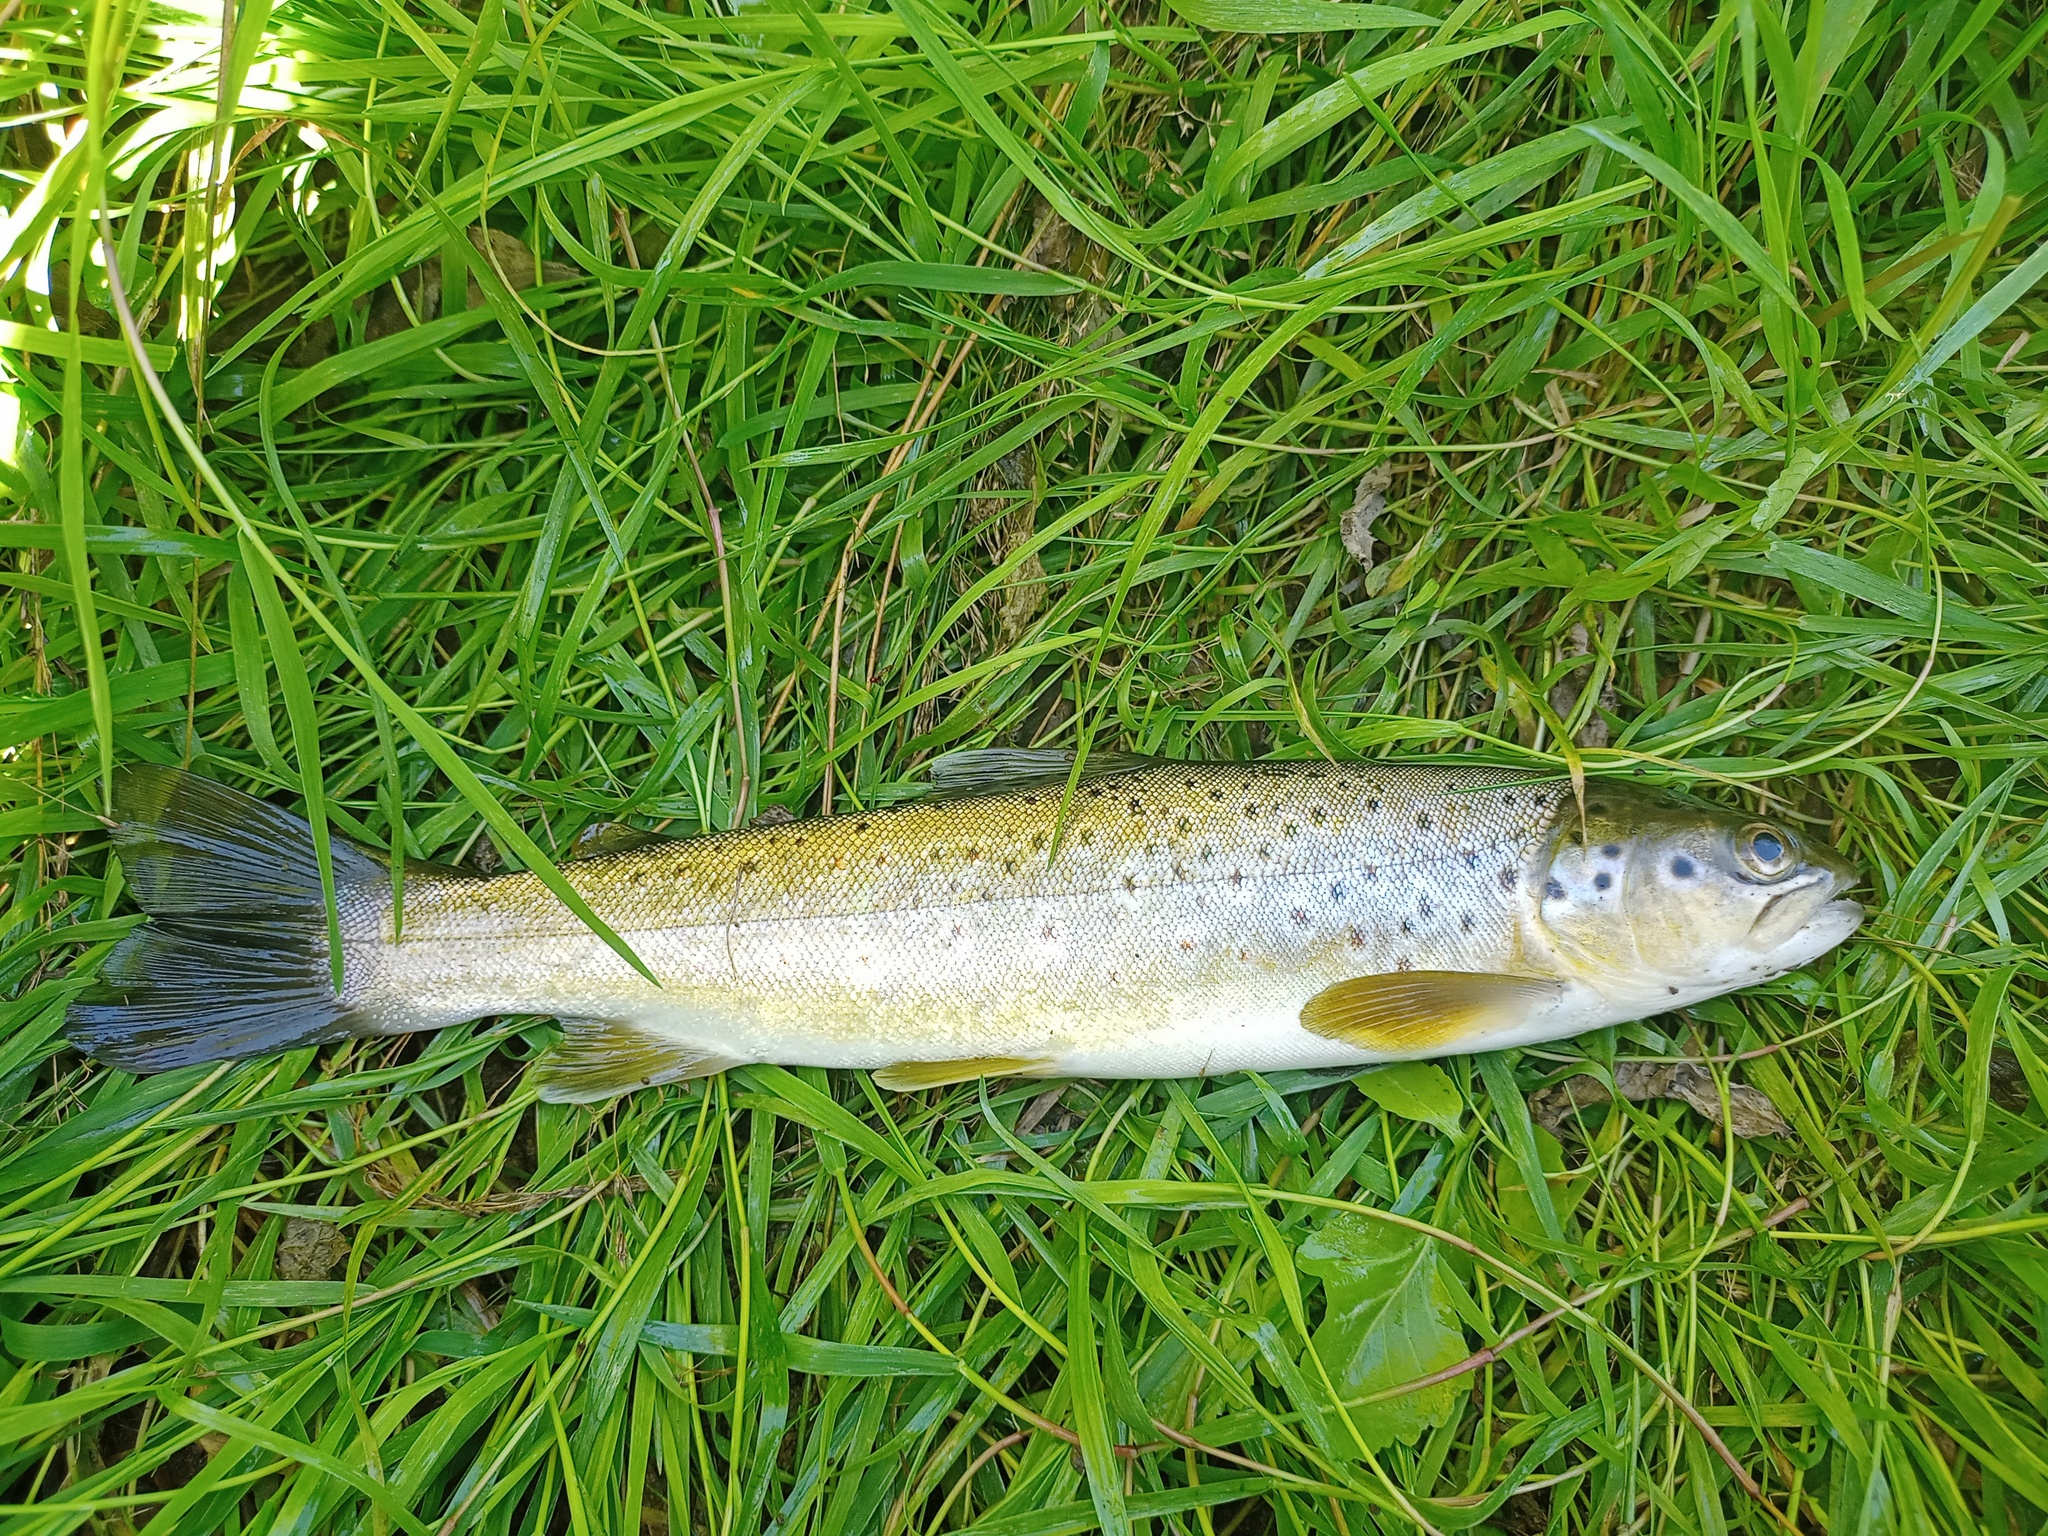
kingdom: Animalia
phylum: Chordata
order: Salmoniformes
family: Salmonidae
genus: Salmo
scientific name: Salmo trutta
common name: Brown trout
